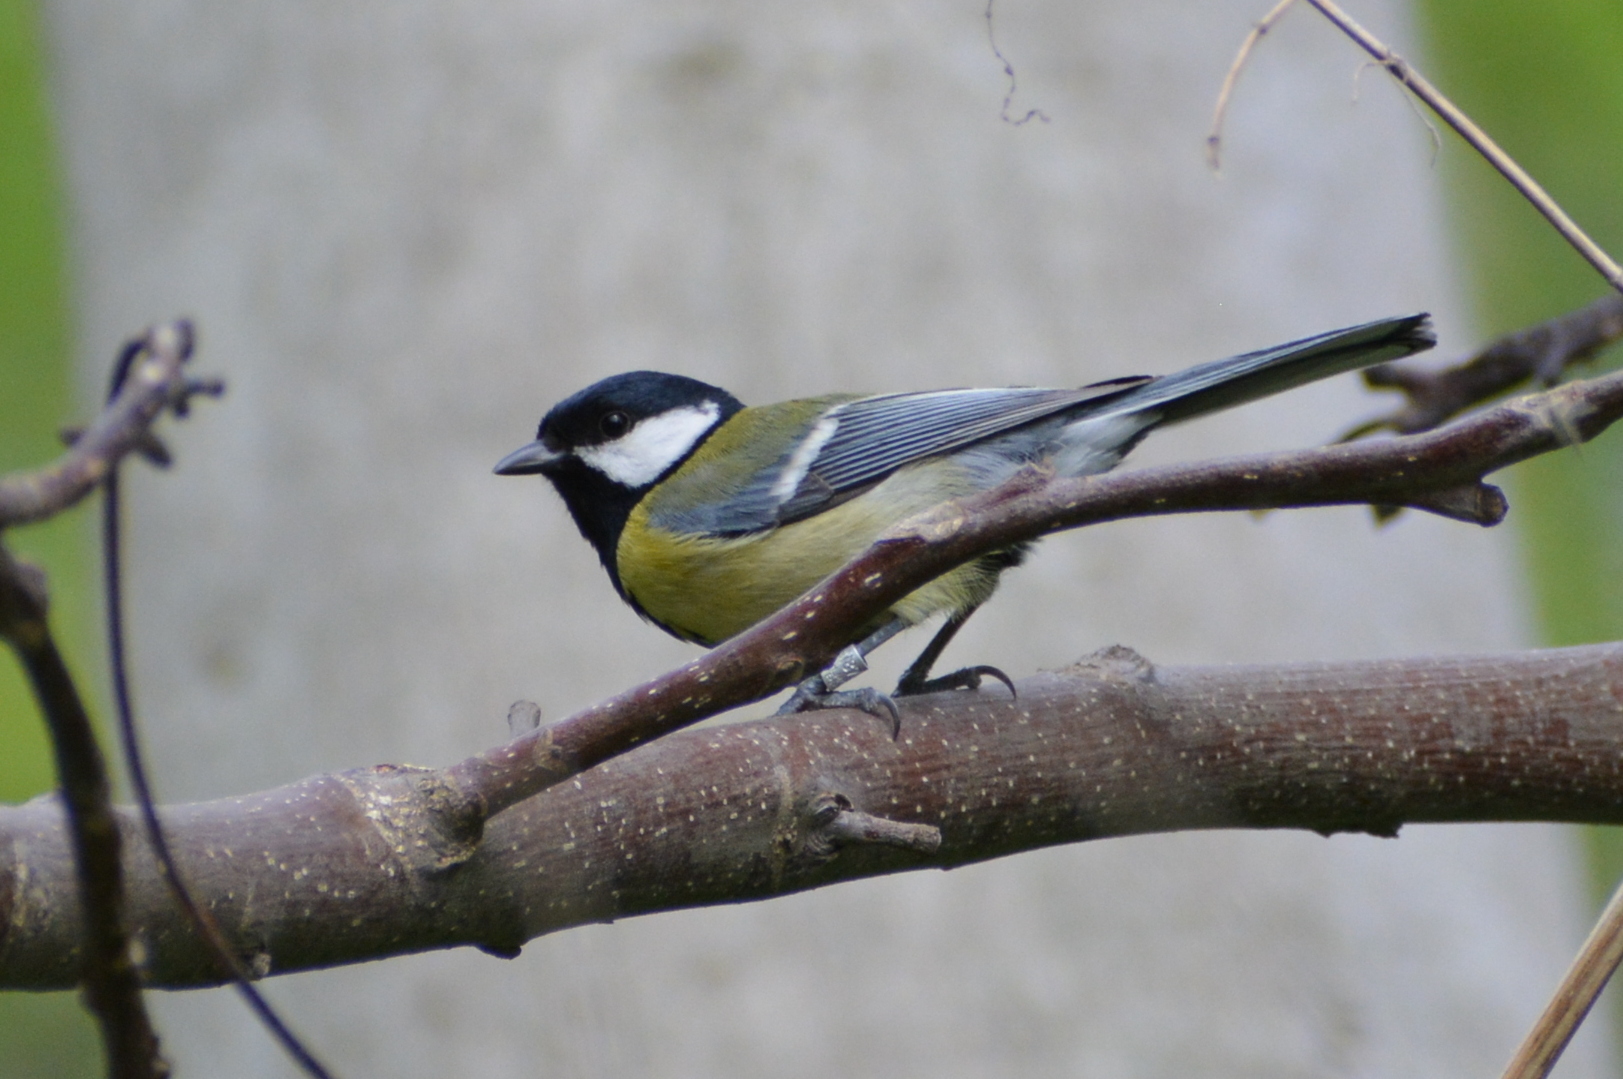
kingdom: Animalia
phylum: Chordata
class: Aves
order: Passeriformes
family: Paridae
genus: Parus
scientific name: Parus major
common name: Great tit
